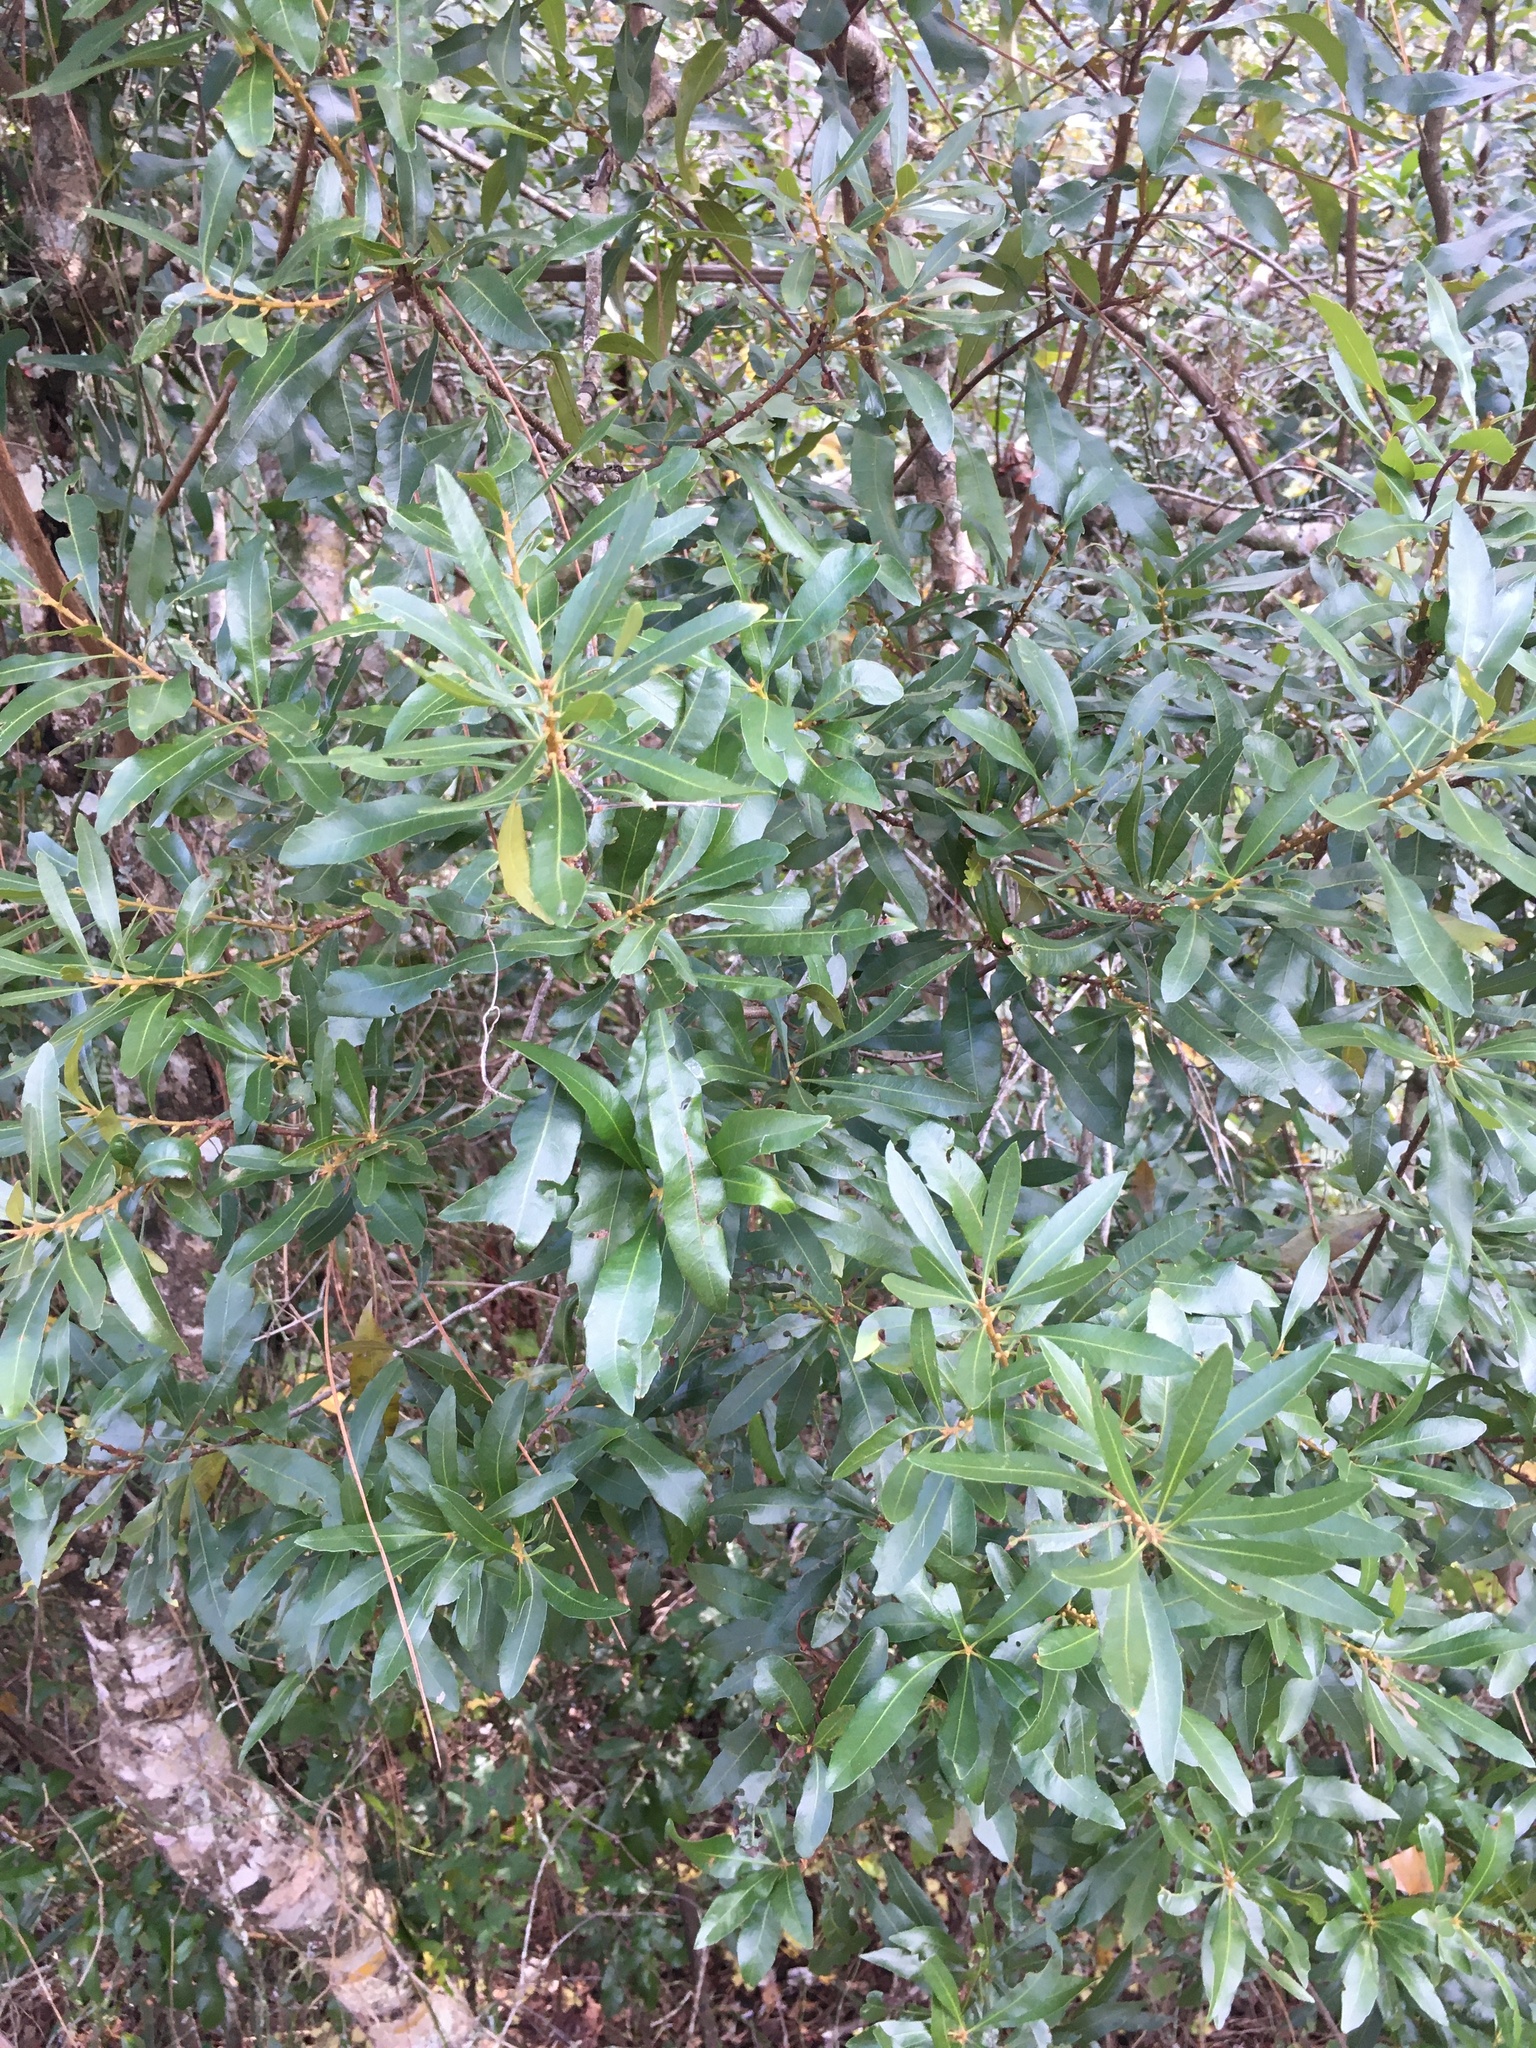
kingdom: Plantae
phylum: Tracheophyta
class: Magnoliopsida
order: Fagales
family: Myricaceae
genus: Morella
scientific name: Morella cerifera
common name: Wax myrtle
